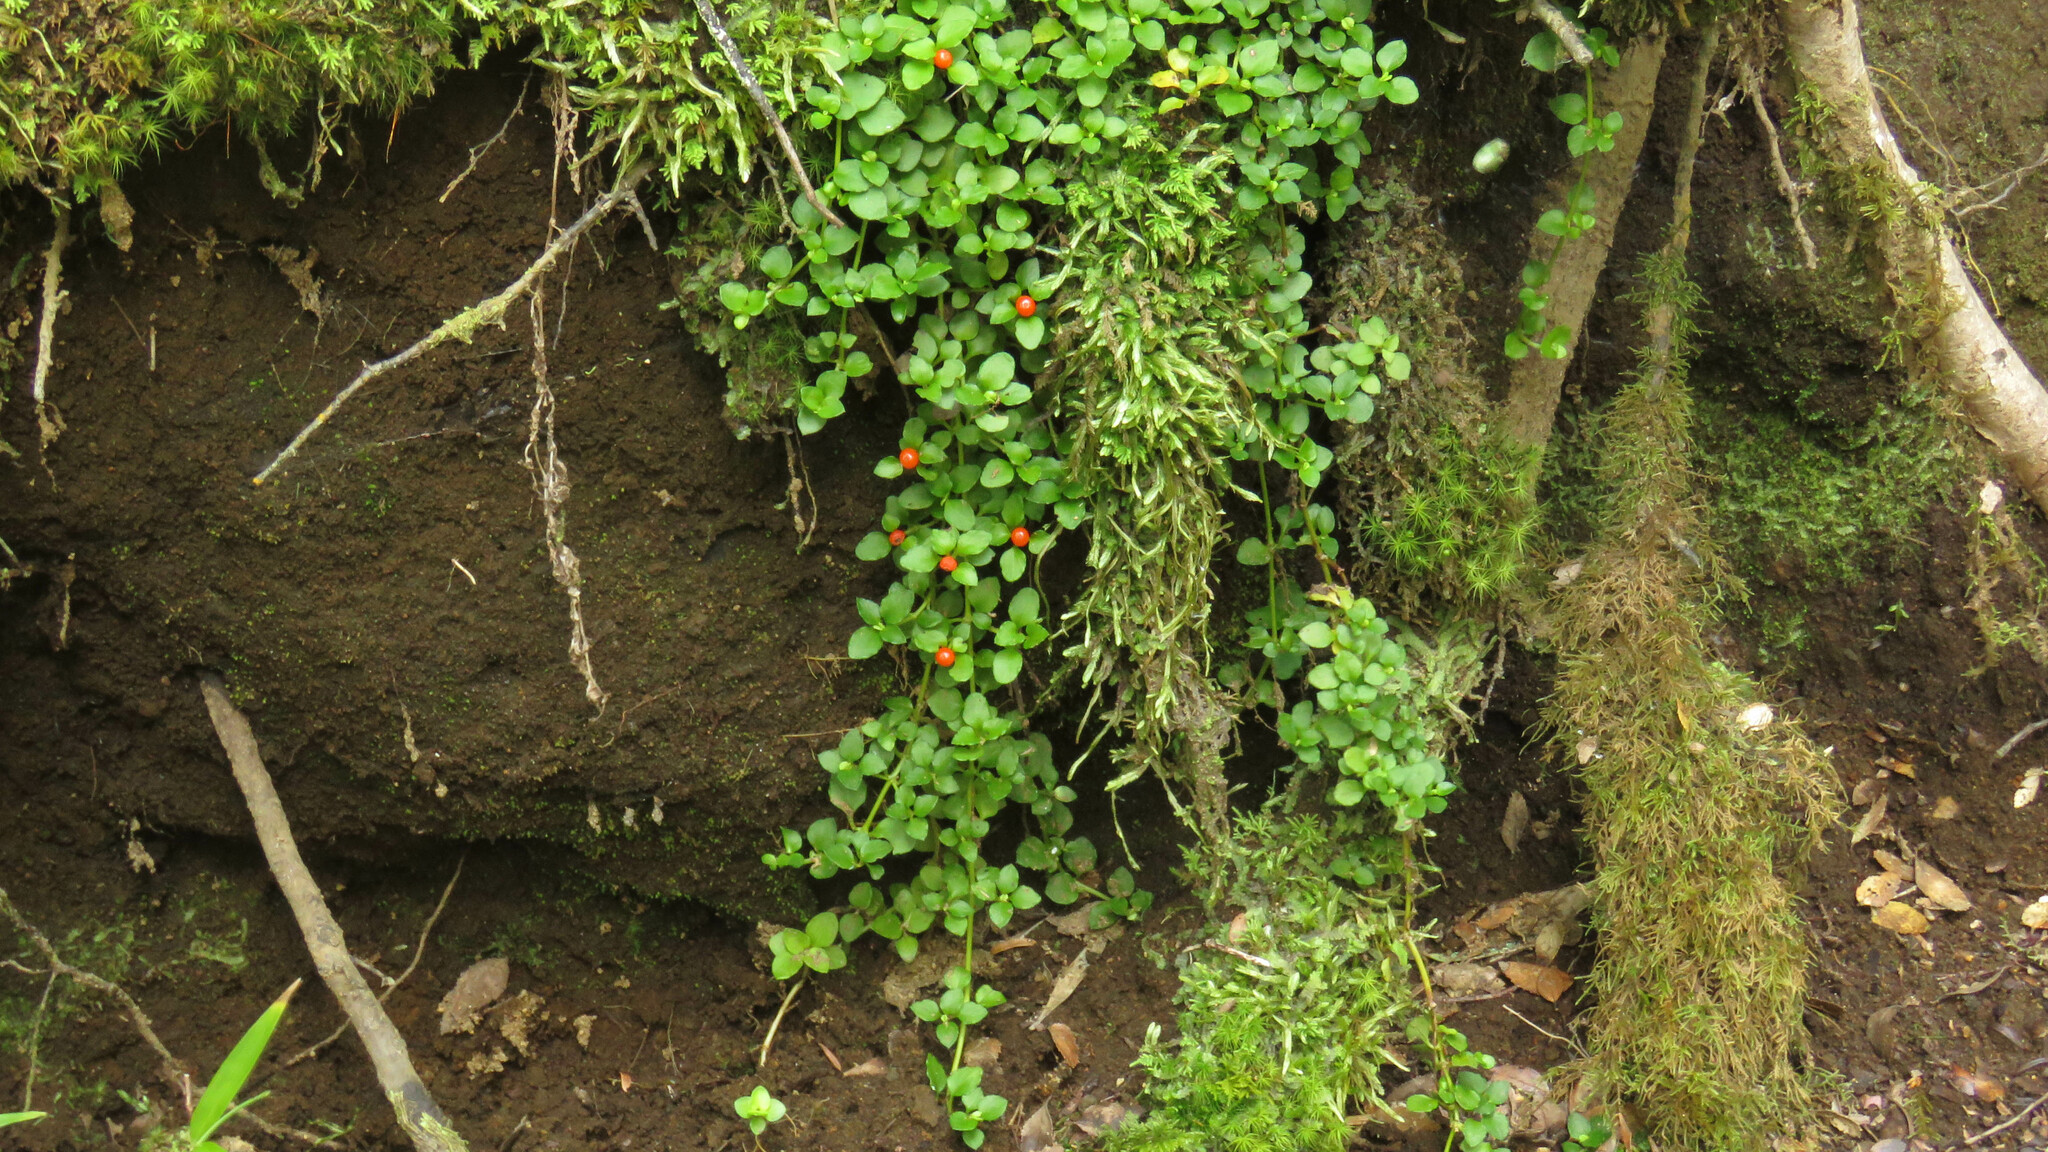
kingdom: Plantae
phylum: Tracheophyta
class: Magnoliopsida
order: Gentianales
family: Rubiaceae
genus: Nertera
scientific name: Nertera granadensis
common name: Beadplant
